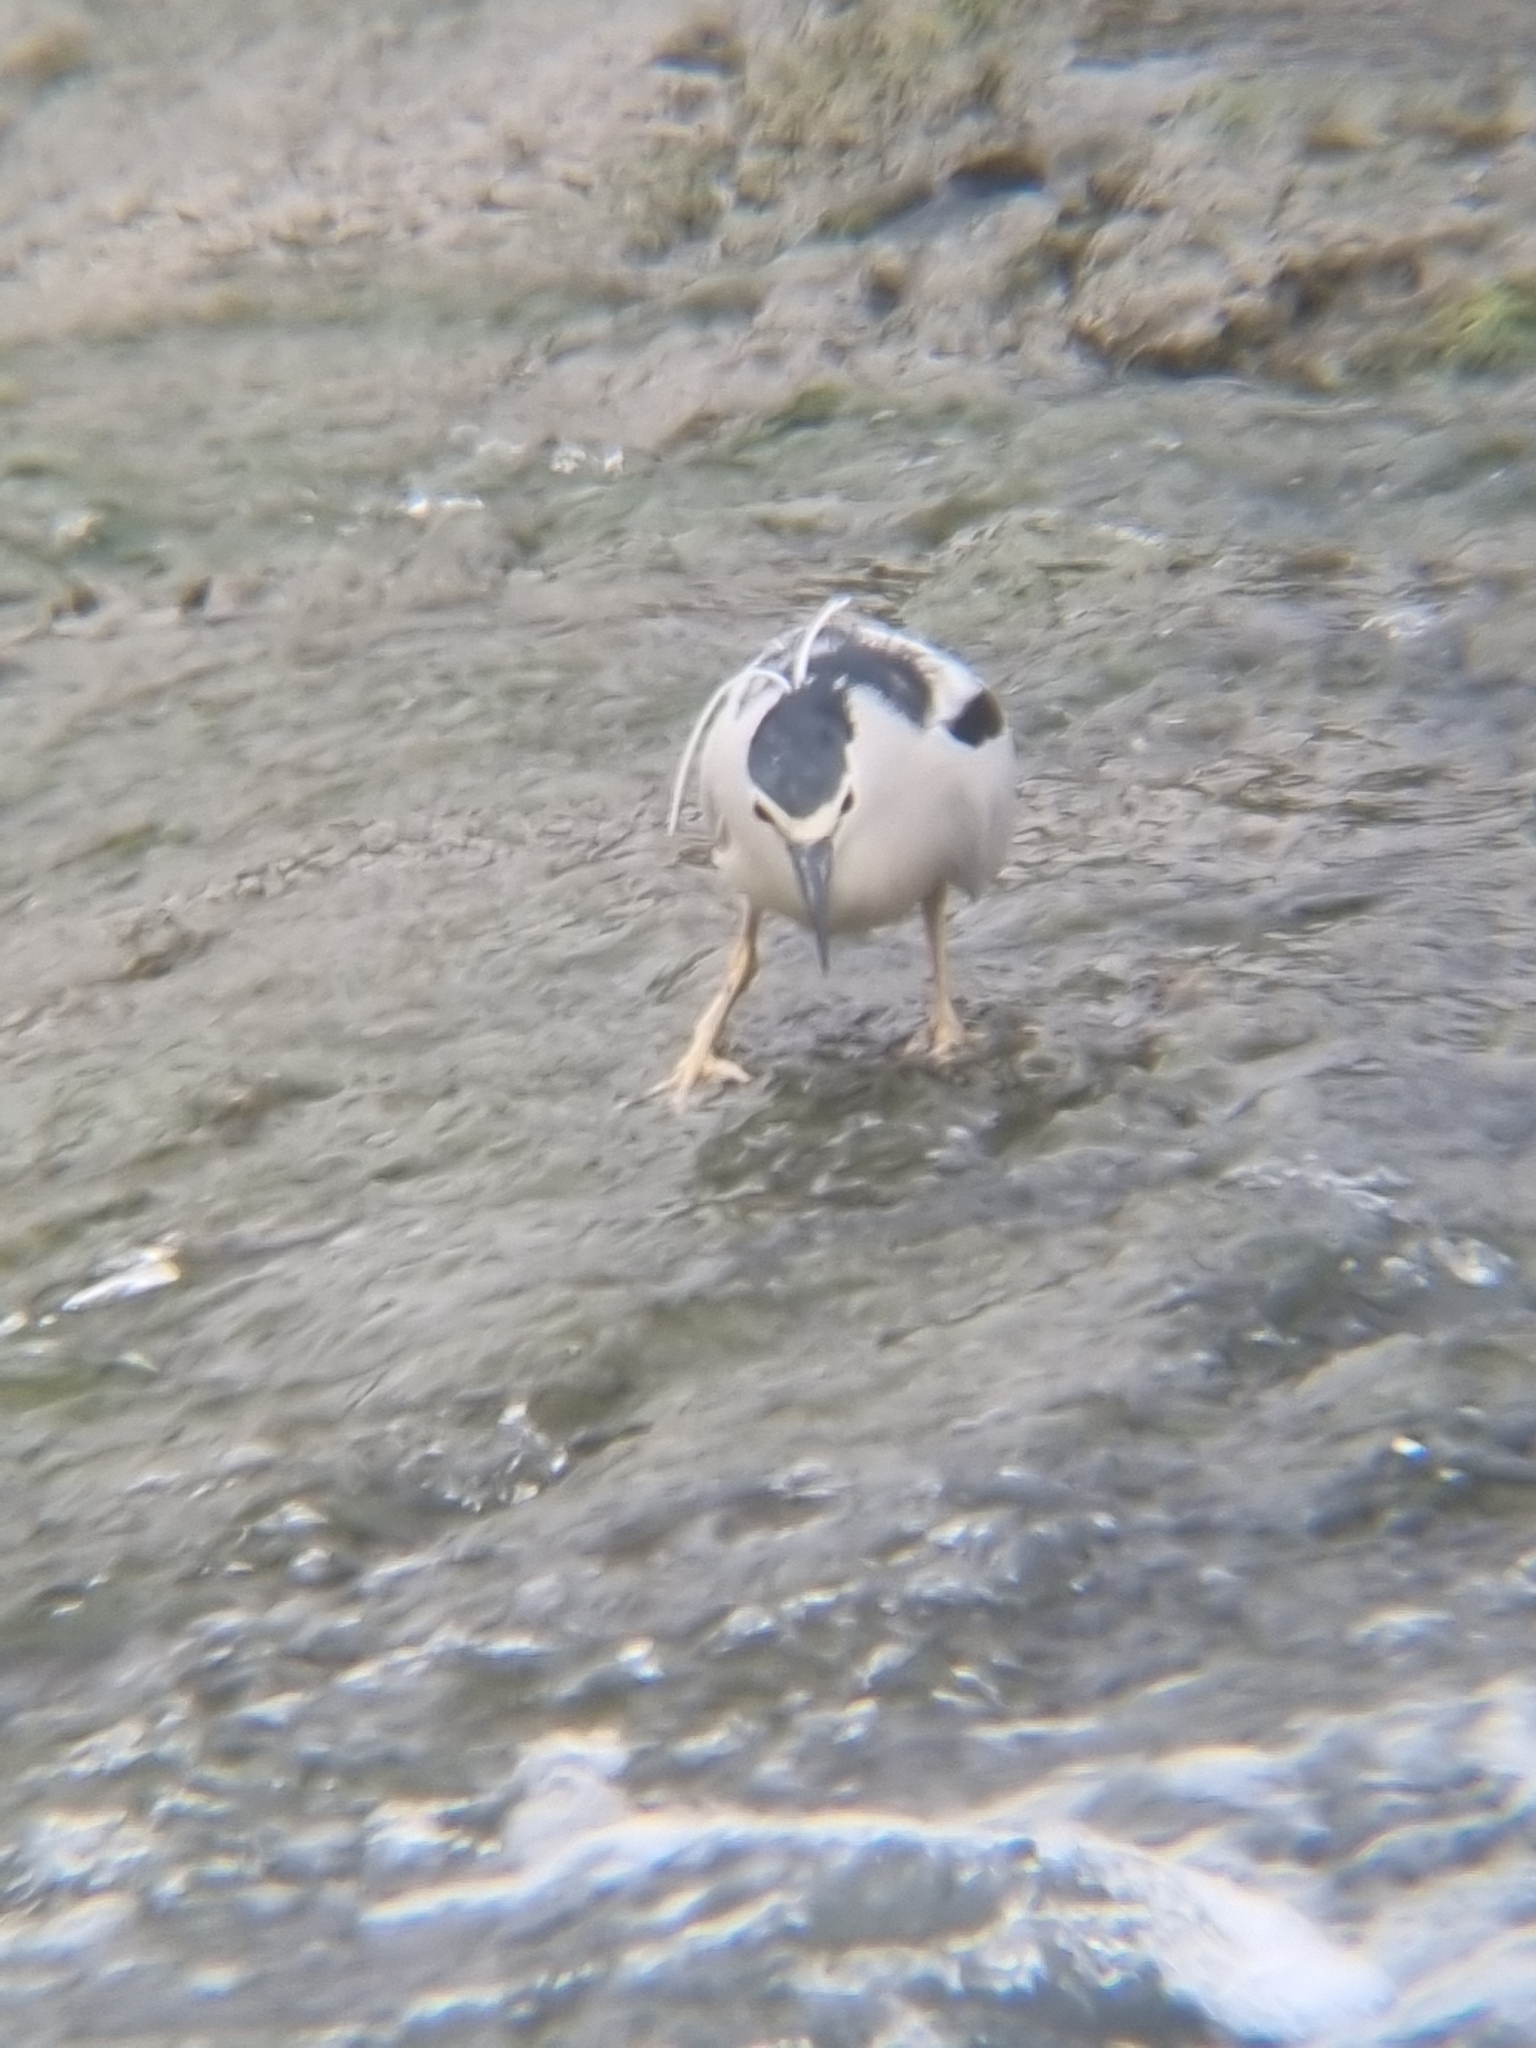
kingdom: Animalia
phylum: Chordata
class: Aves
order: Pelecaniformes
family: Ardeidae
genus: Nycticorax
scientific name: Nycticorax nycticorax
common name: Black-crowned night heron
